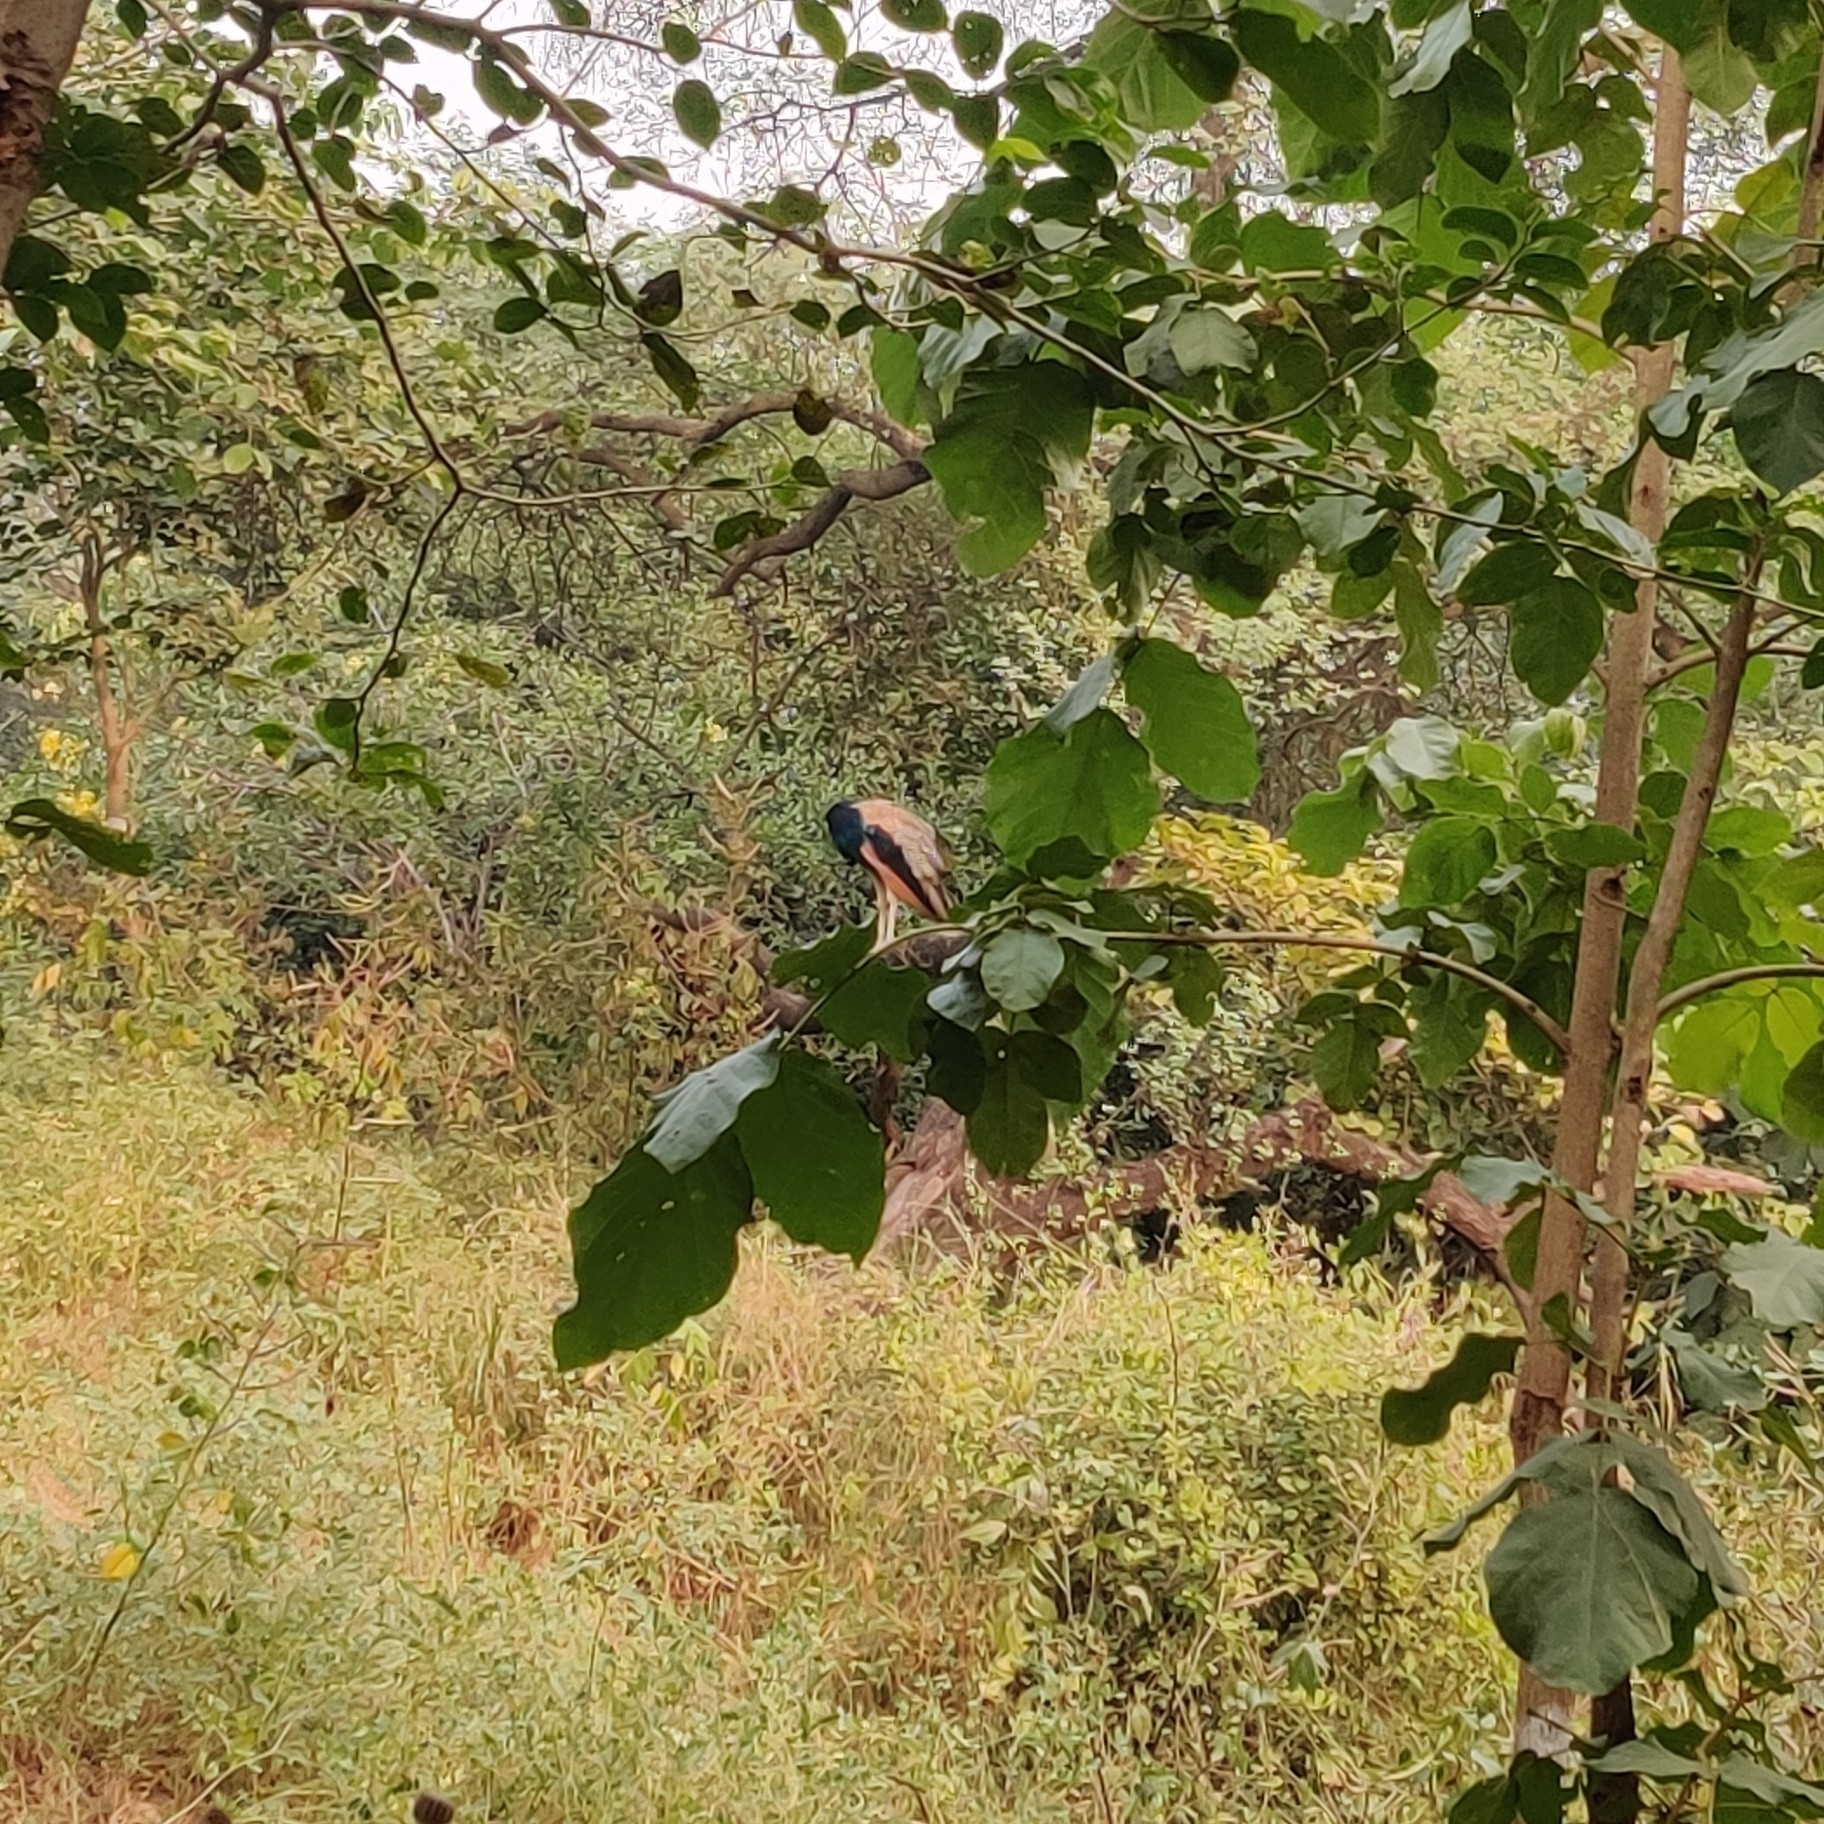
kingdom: Animalia
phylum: Chordata
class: Aves
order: Galliformes
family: Phasianidae
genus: Pavo
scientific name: Pavo cristatus
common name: Indian peafowl
